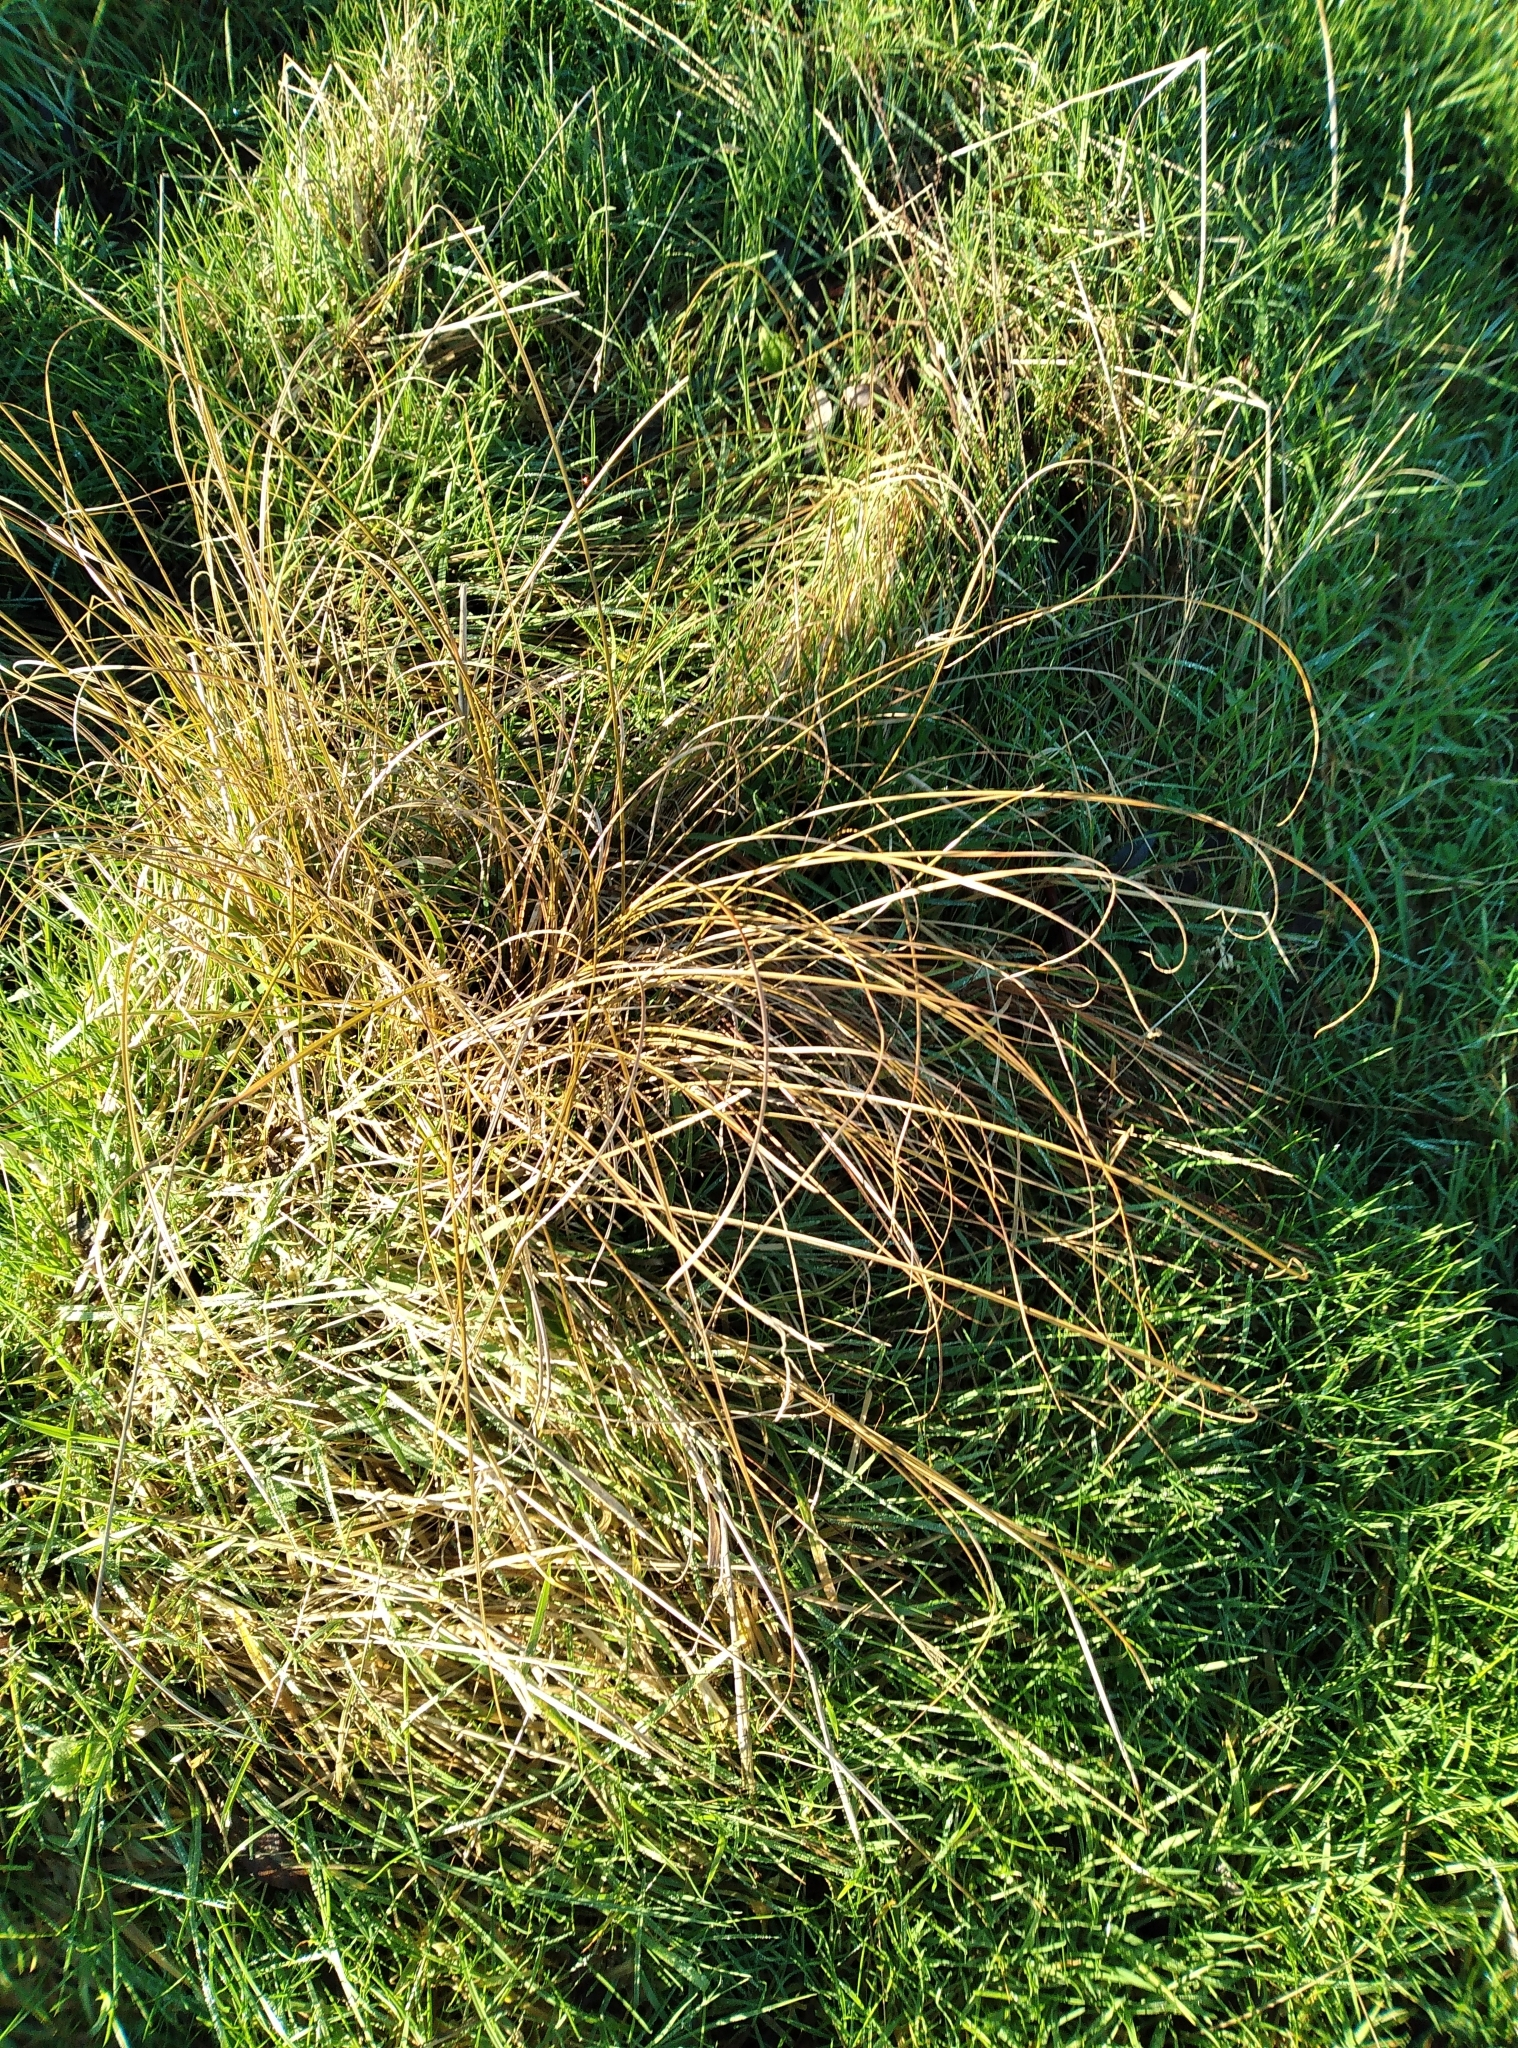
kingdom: Plantae
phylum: Tracheophyta
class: Liliopsida
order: Poales
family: Cyperaceae
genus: Carex
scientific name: Carex flagellifera
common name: Glen murray tussock
